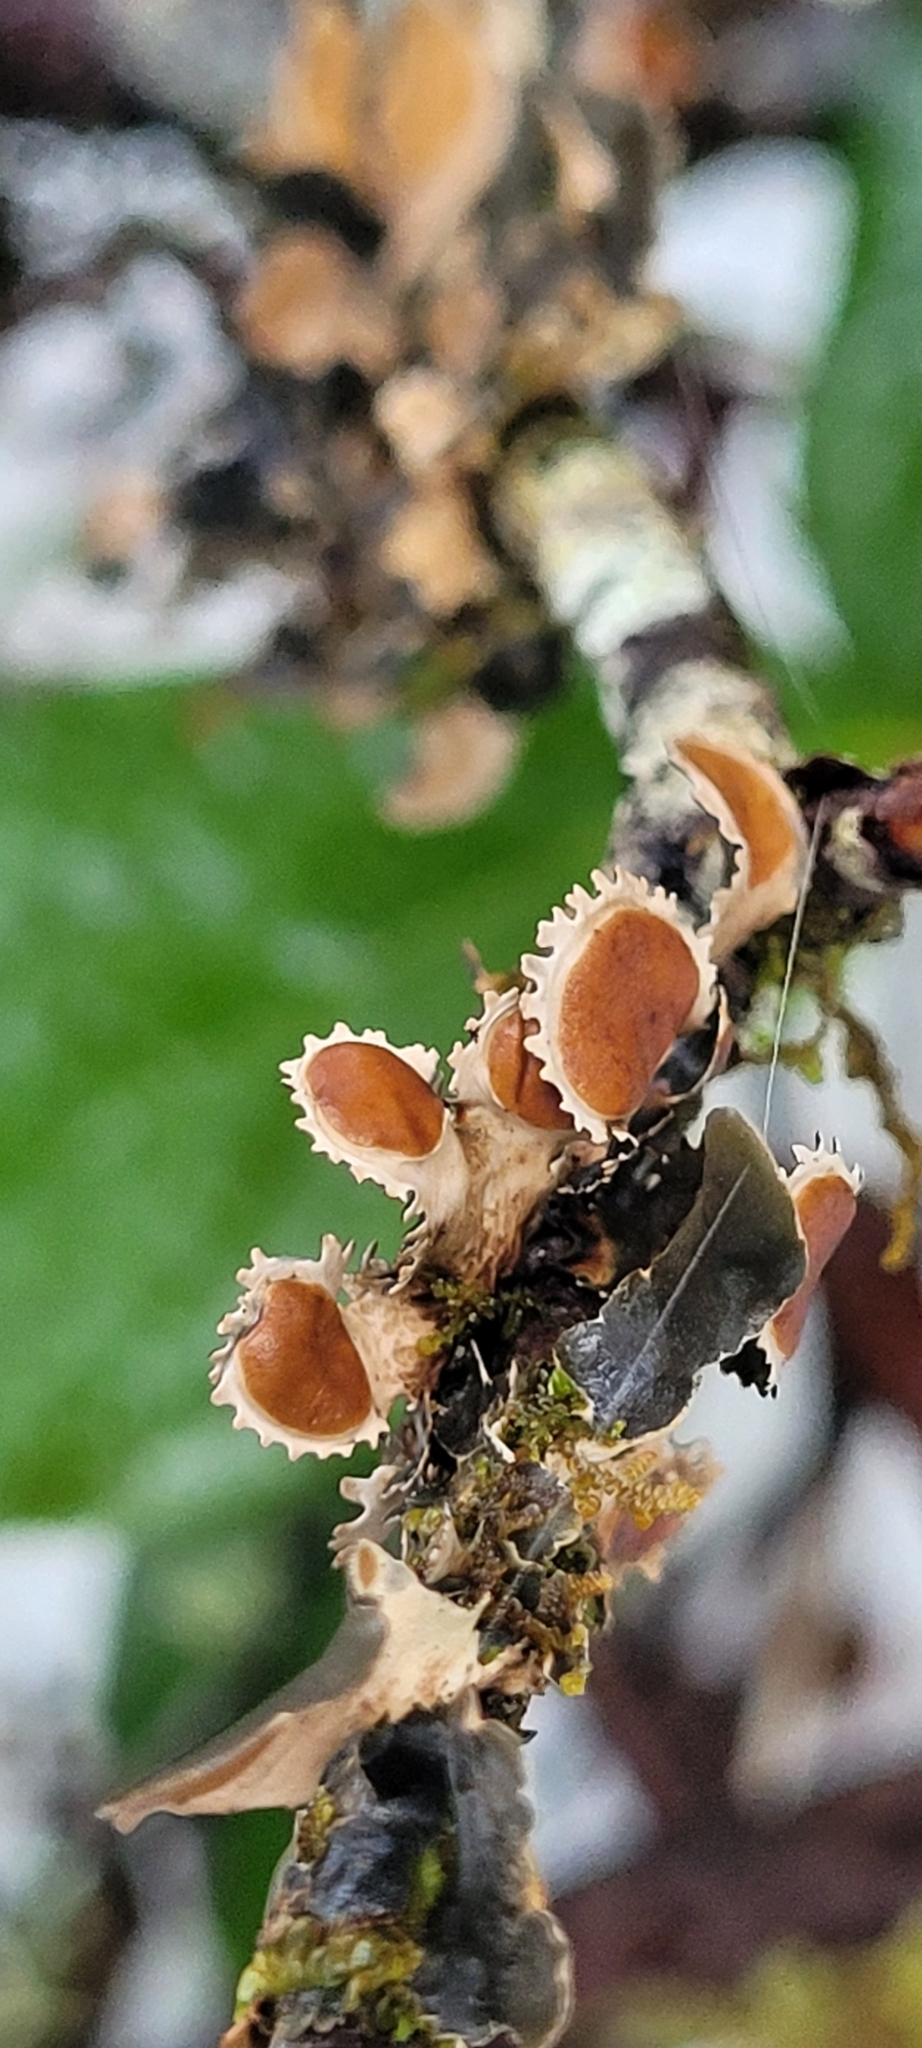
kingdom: Fungi
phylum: Ascomycota
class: Lecanoromycetes
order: Peltigerales
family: Nephromataceae
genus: Nephroma
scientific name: Nephroma helveticum
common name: Fringed kidney lichen
